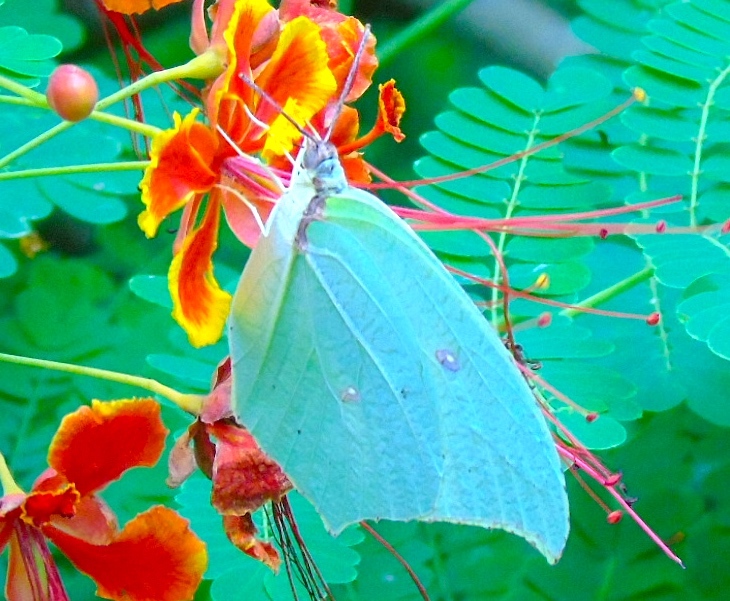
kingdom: Animalia
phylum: Arthropoda
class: Insecta
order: Lepidoptera
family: Pieridae
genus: Anteos
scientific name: Anteos maerula
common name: Angled sulphur
